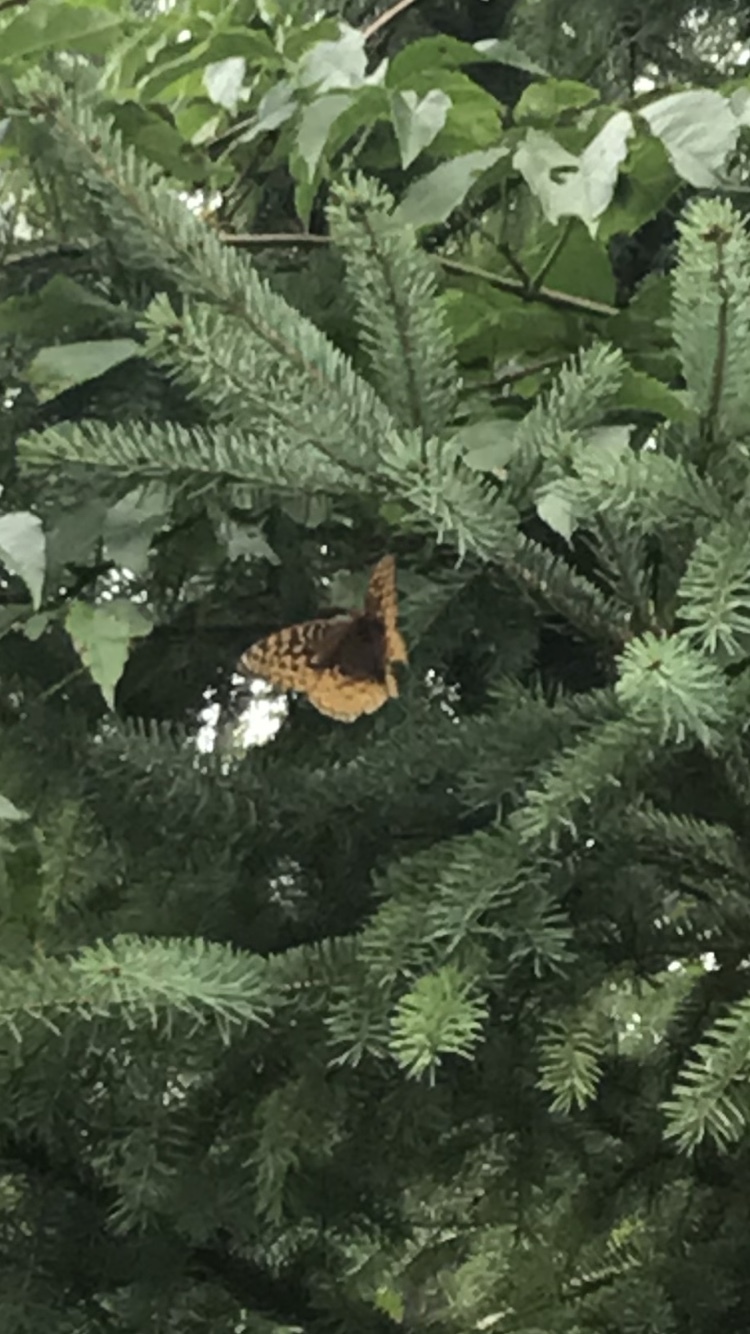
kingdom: Animalia
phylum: Arthropoda
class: Insecta
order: Lepidoptera
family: Nymphalidae
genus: Speyeria
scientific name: Speyeria cybele
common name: Great spangled fritillary
